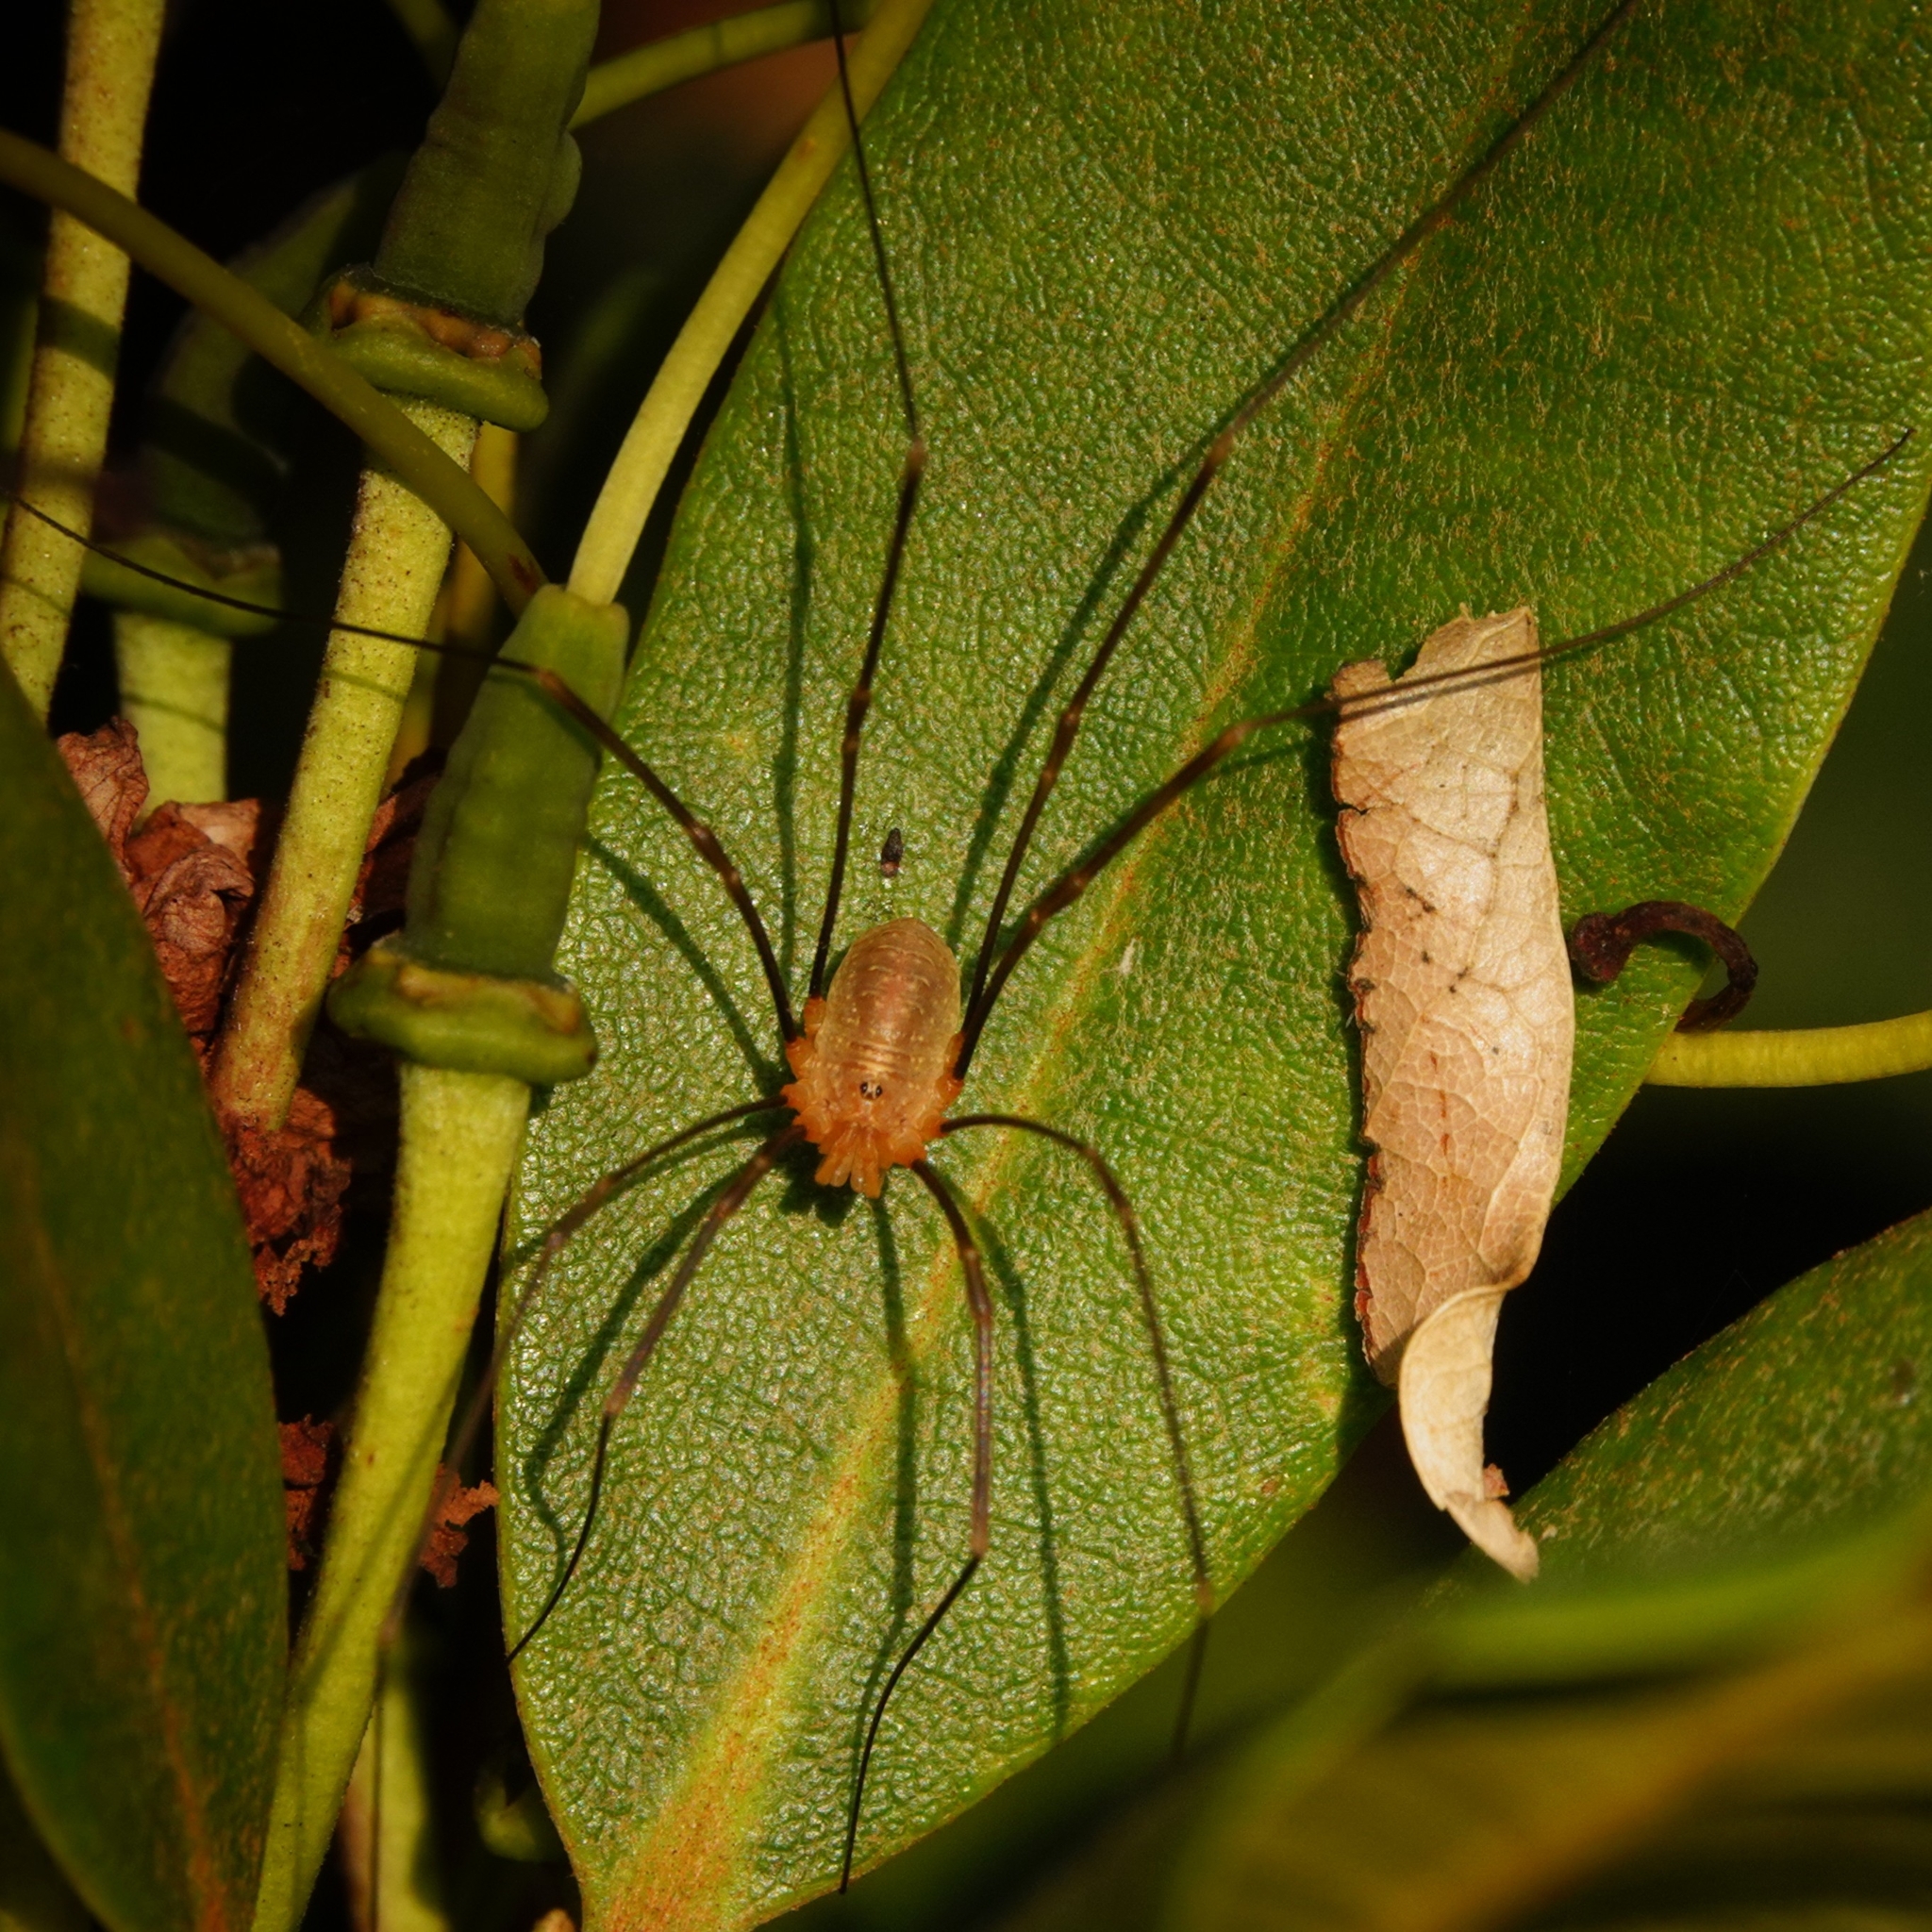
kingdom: Animalia
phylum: Arthropoda
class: Arachnida
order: Opiliones
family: Phalangiidae
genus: Opilio
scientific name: Opilio canestrinii
